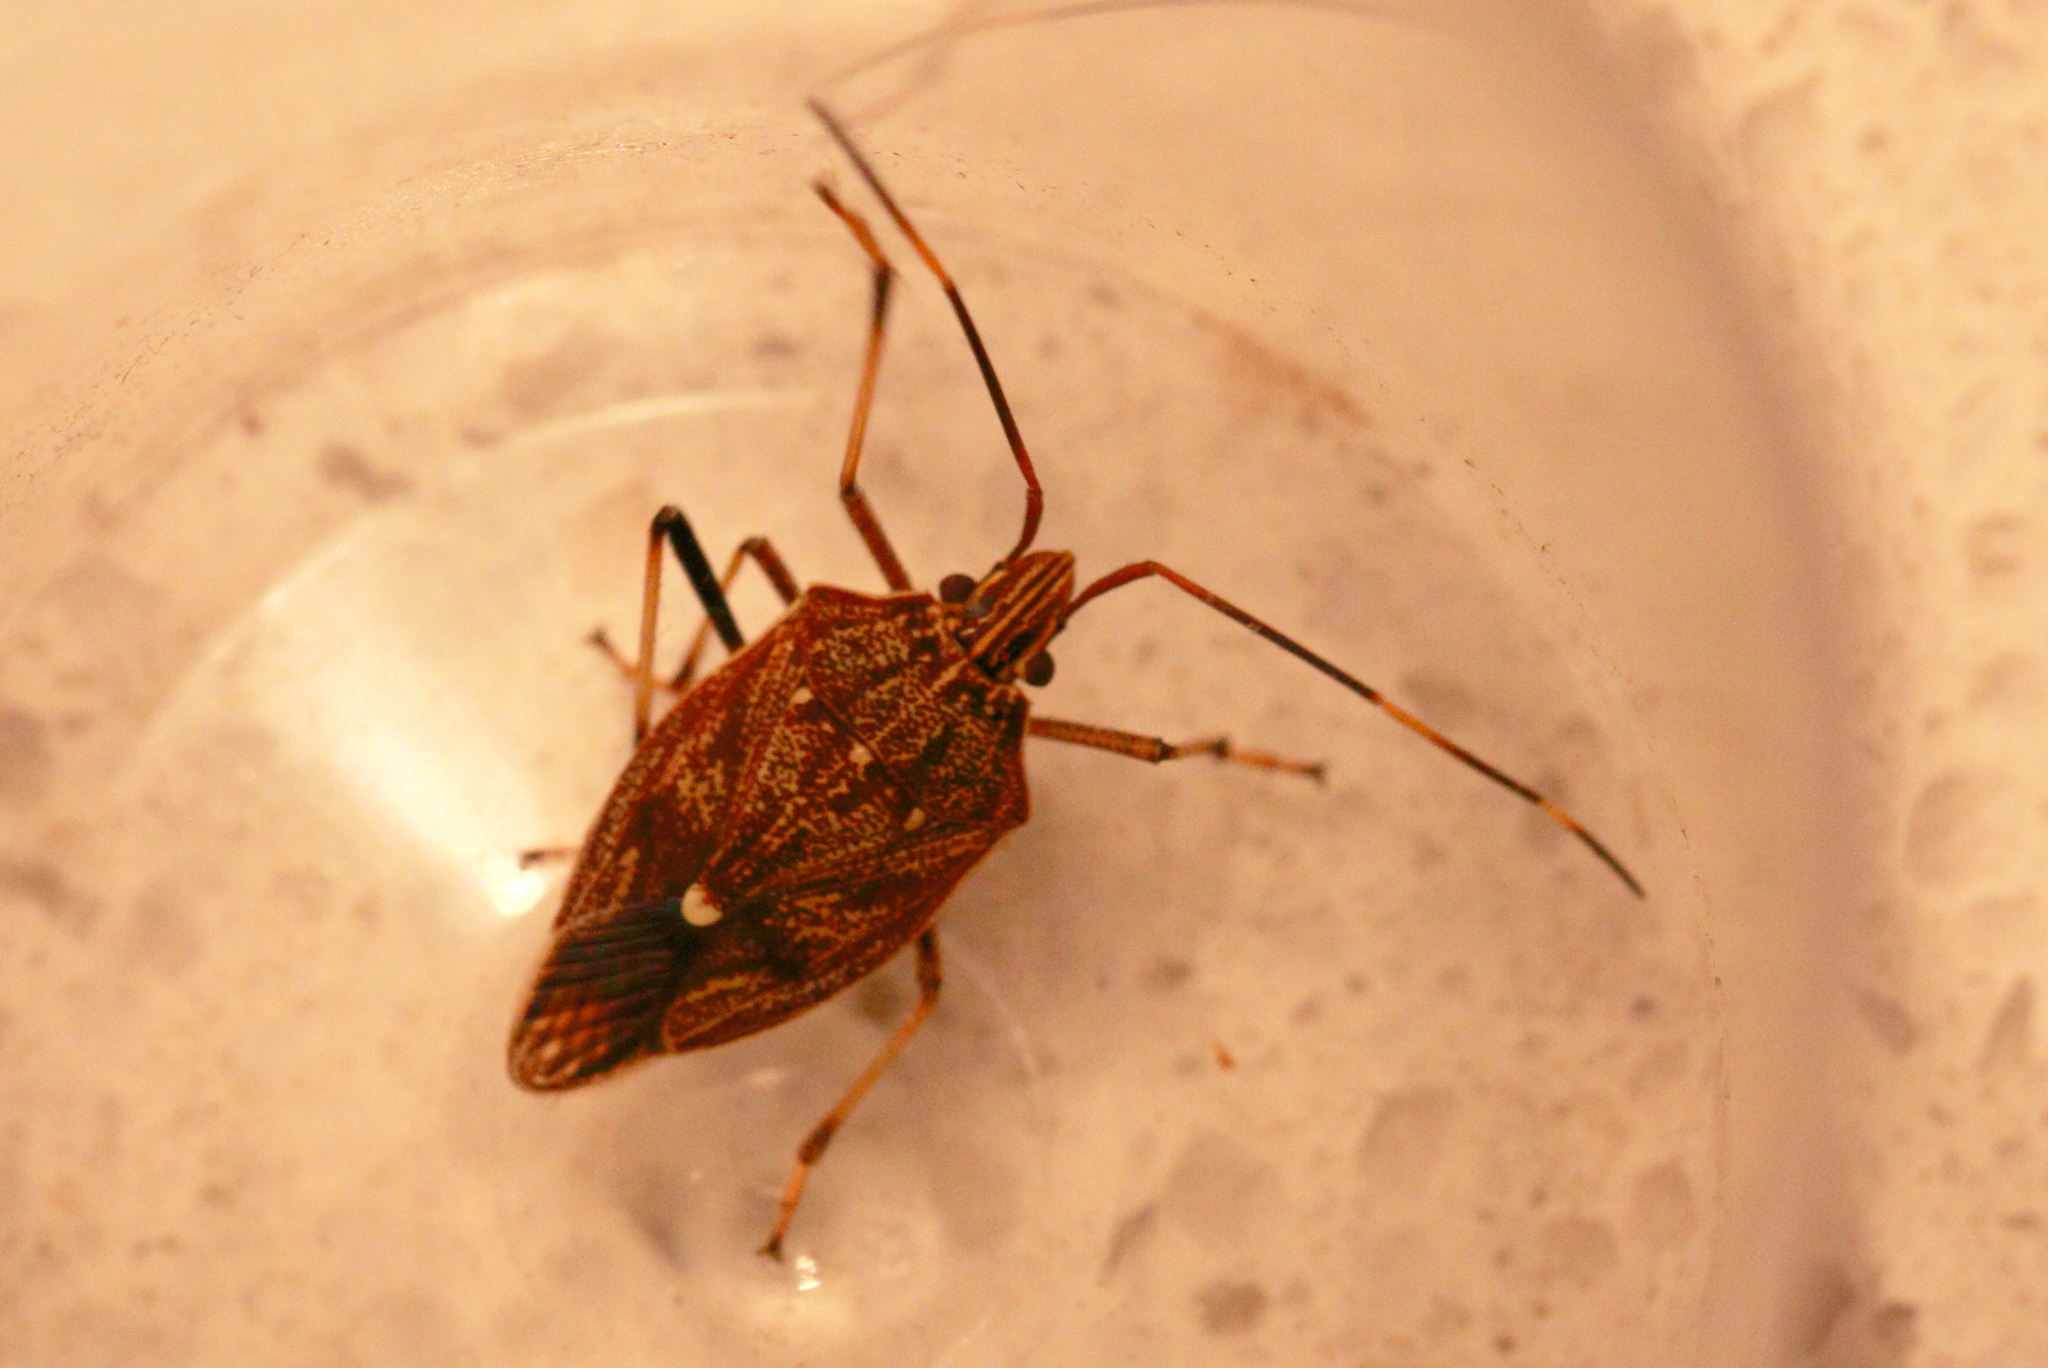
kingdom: Animalia
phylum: Arthropoda
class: Insecta
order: Hemiptera
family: Pentatomidae
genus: Poecilometis
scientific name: Poecilometis
